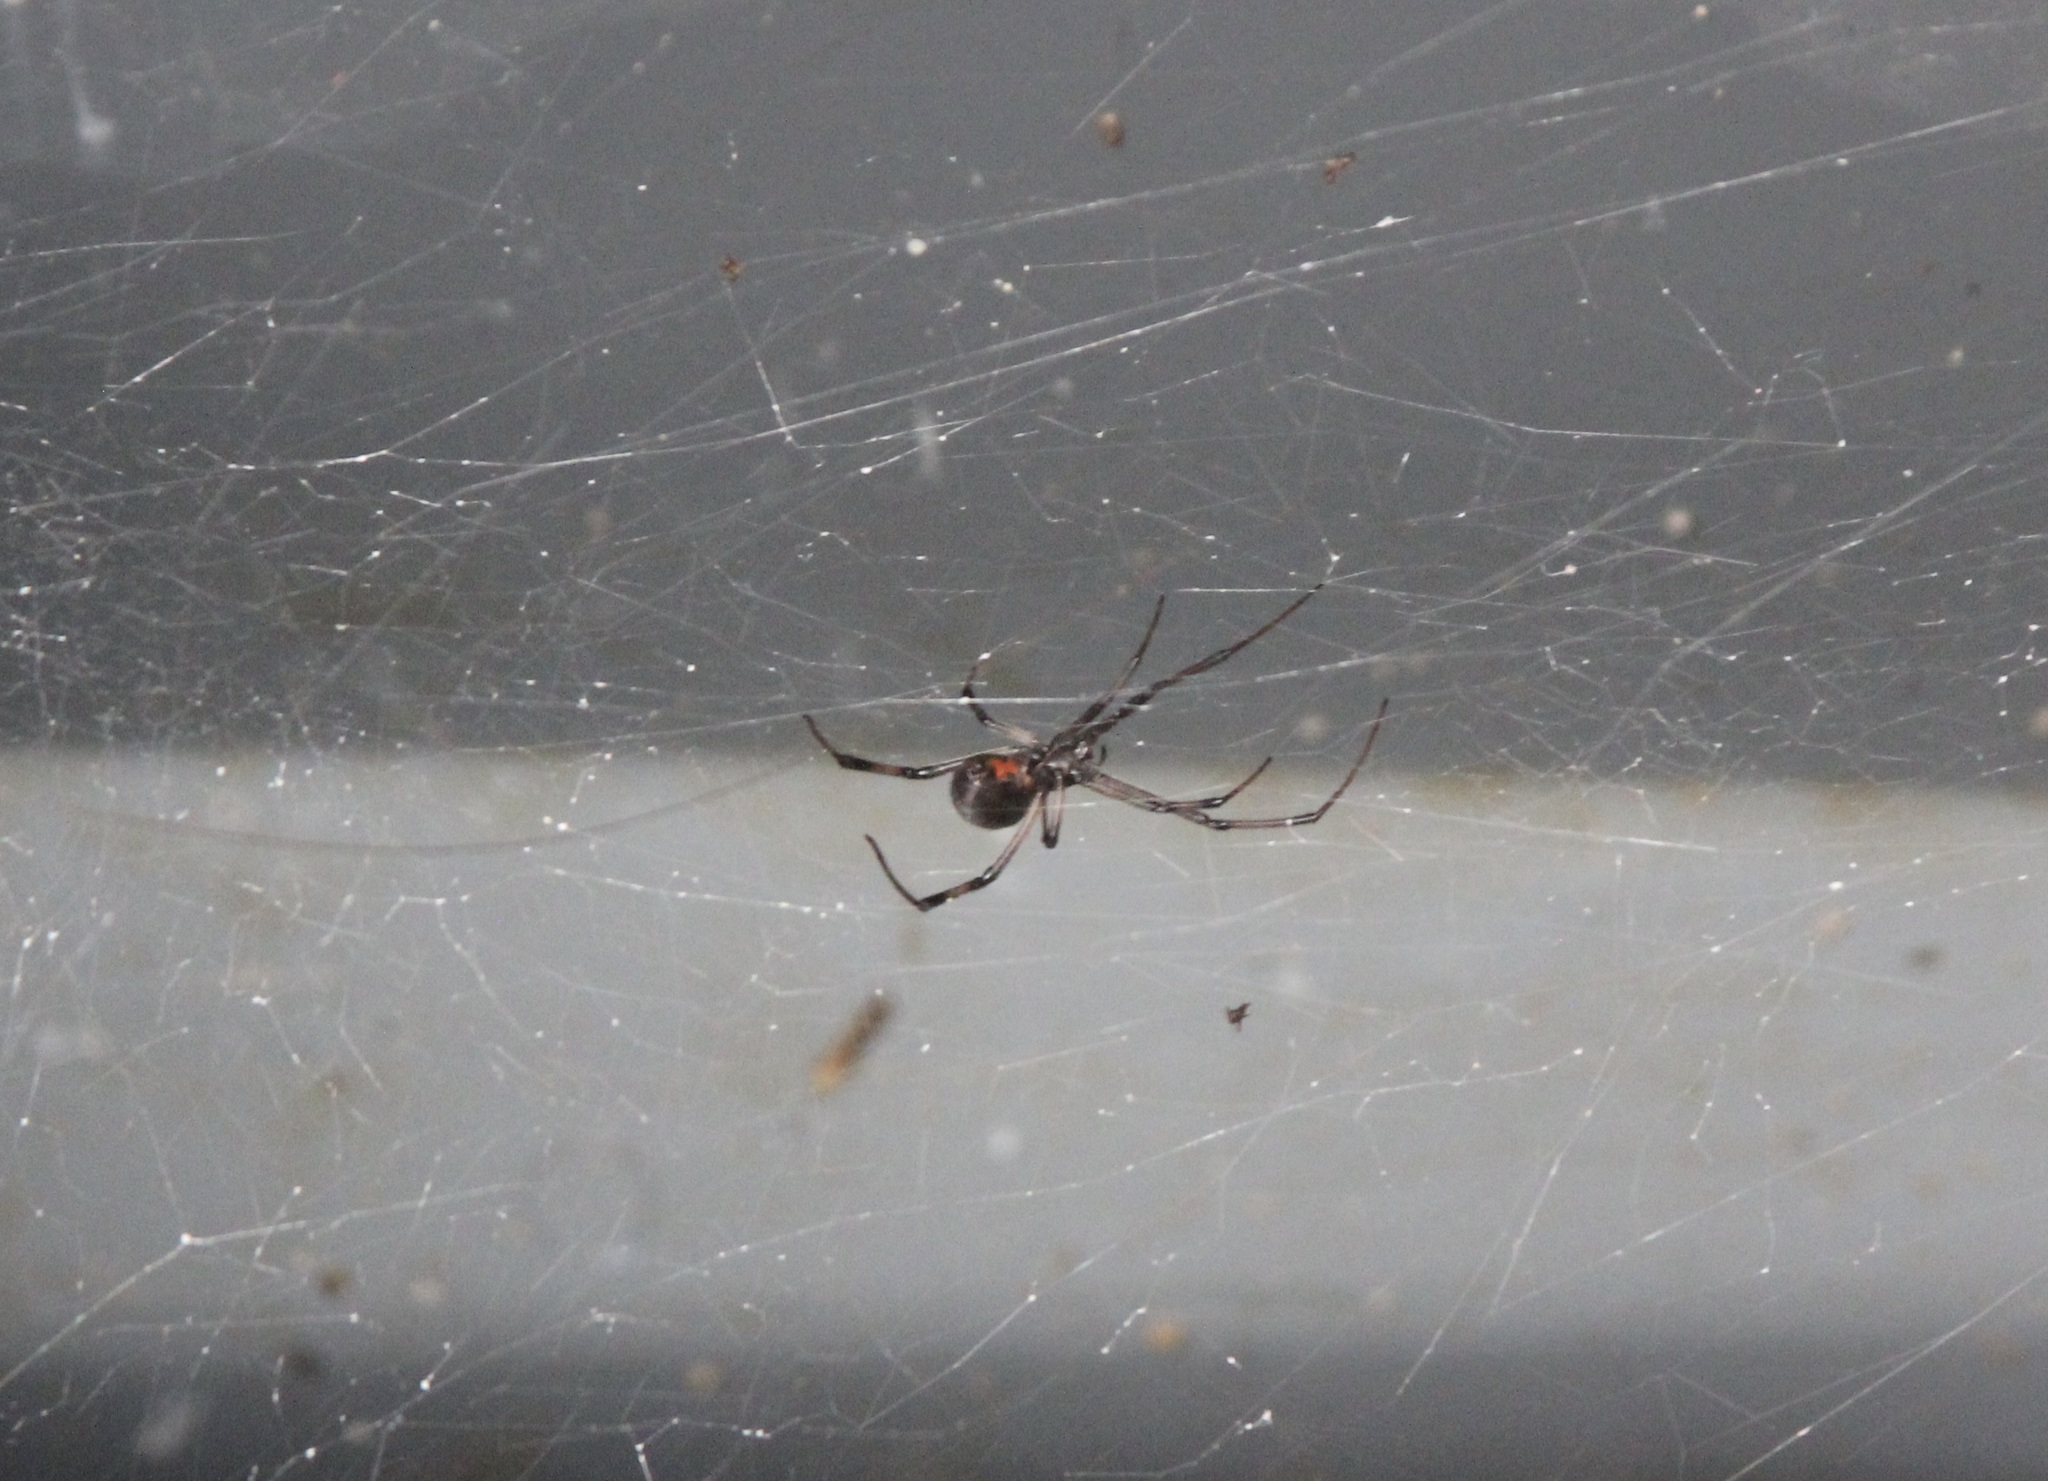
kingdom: Animalia
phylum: Arthropoda
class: Arachnida
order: Araneae
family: Theridiidae
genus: Latrodectus
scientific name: Latrodectus geometricus
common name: Brown widow spider
